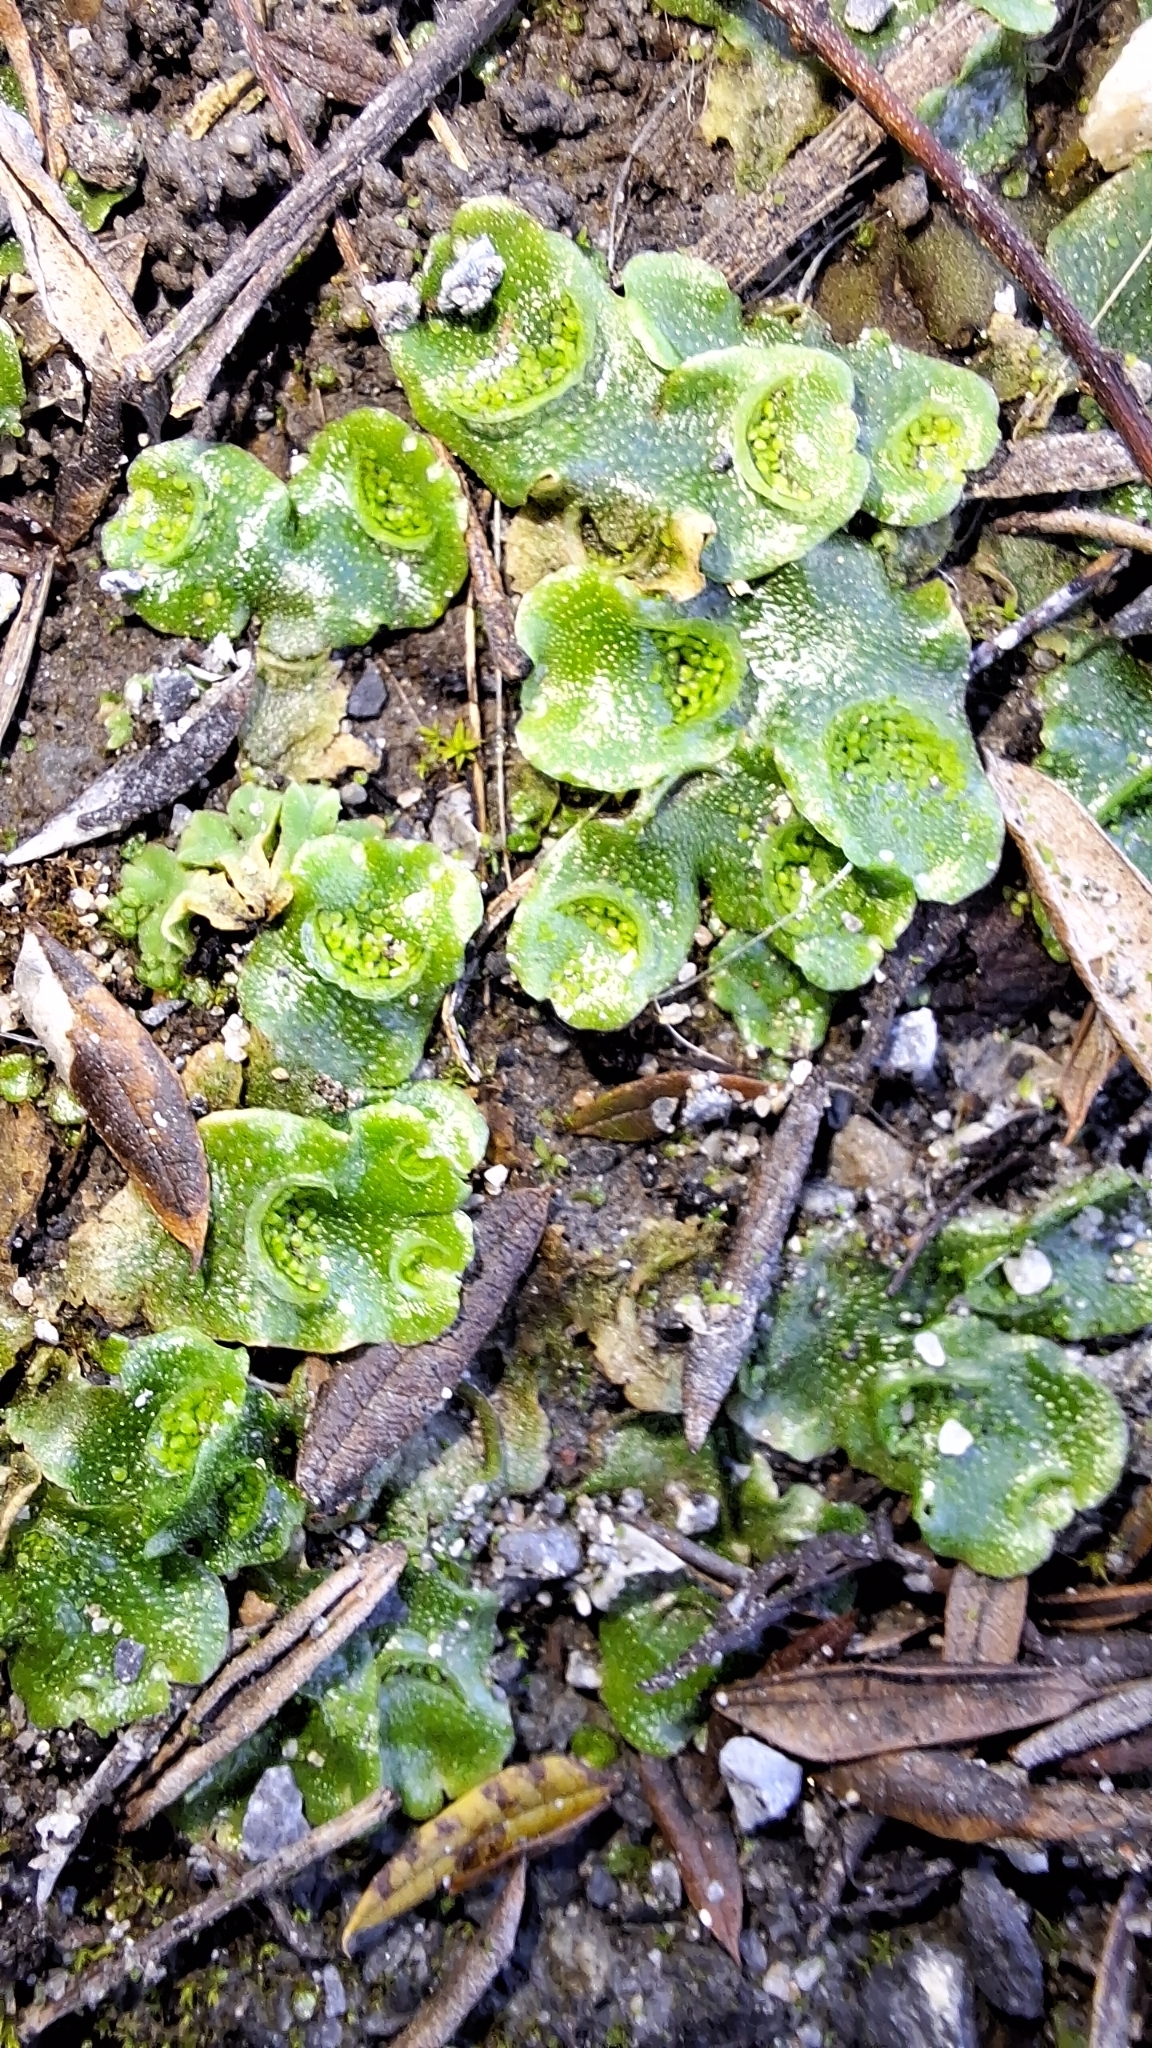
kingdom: Plantae
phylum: Marchantiophyta
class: Marchantiopsida
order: Lunulariales
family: Lunulariaceae
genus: Lunularia
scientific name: Lunularia cruciata
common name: Crescent-cup liverwort
